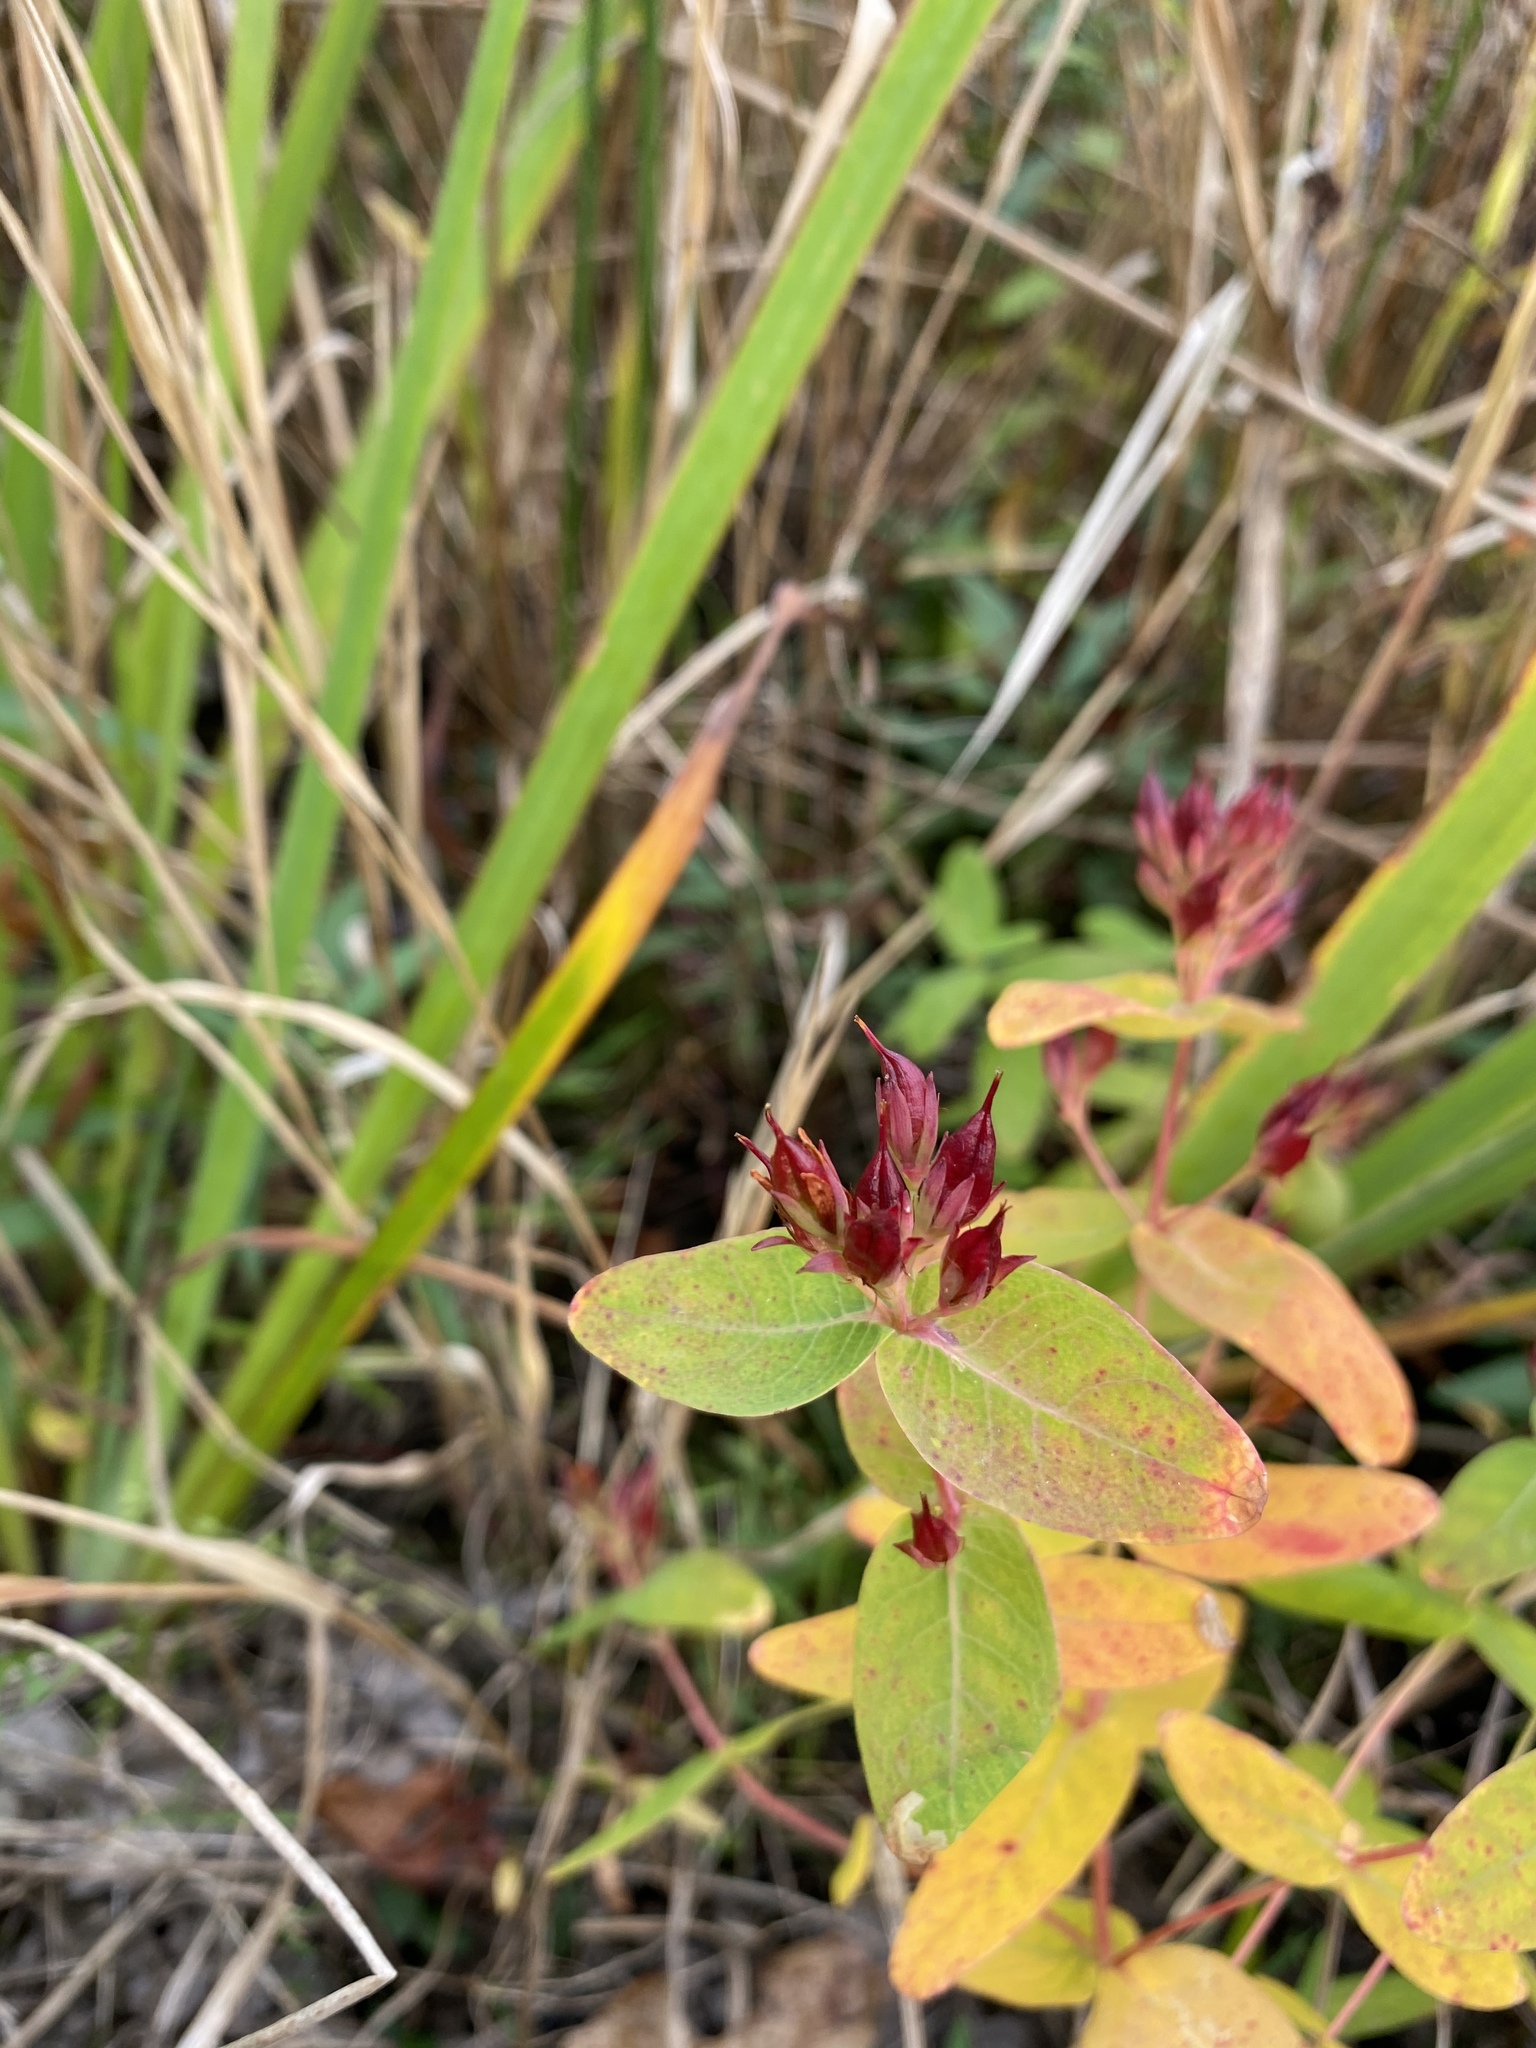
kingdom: Plantae
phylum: Tracheophyta
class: Magnoliopsida
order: Malpighiales
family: Hypericaceae
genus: Triadenum
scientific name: Triadenum virginicum
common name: Marsh st. john's-wort
